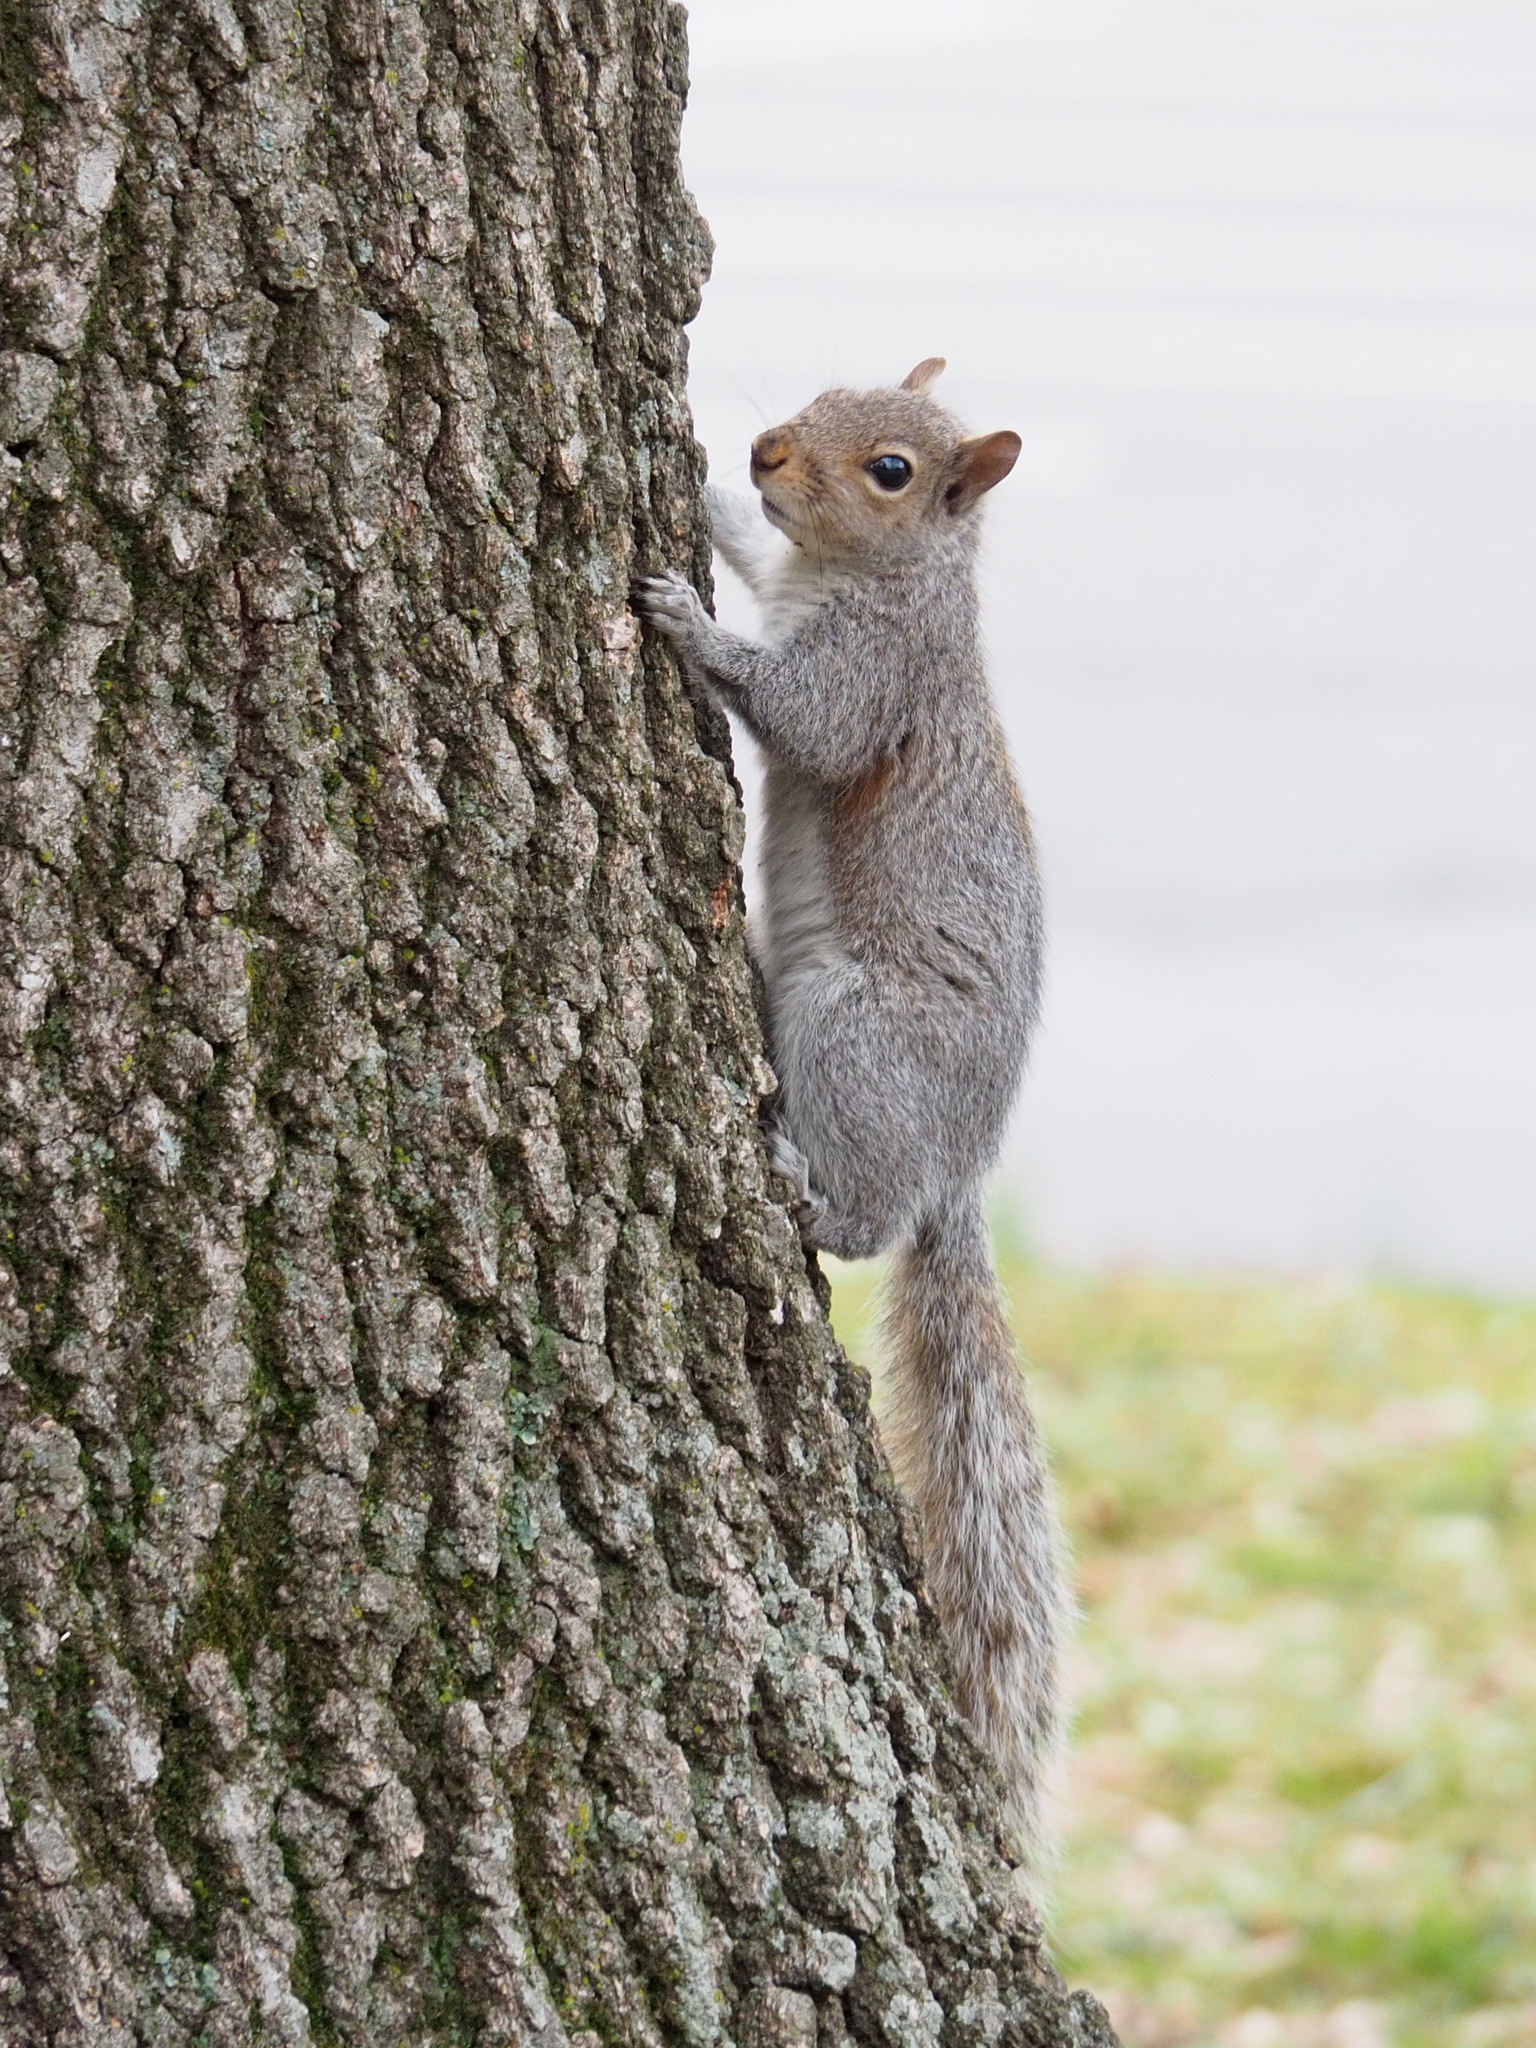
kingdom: Animalia
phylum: Chordata
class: Mammalia
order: Rodentia
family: Sciuridae
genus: Sciurus
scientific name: Sciurus carolinensis
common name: Eastern gray squirrel
